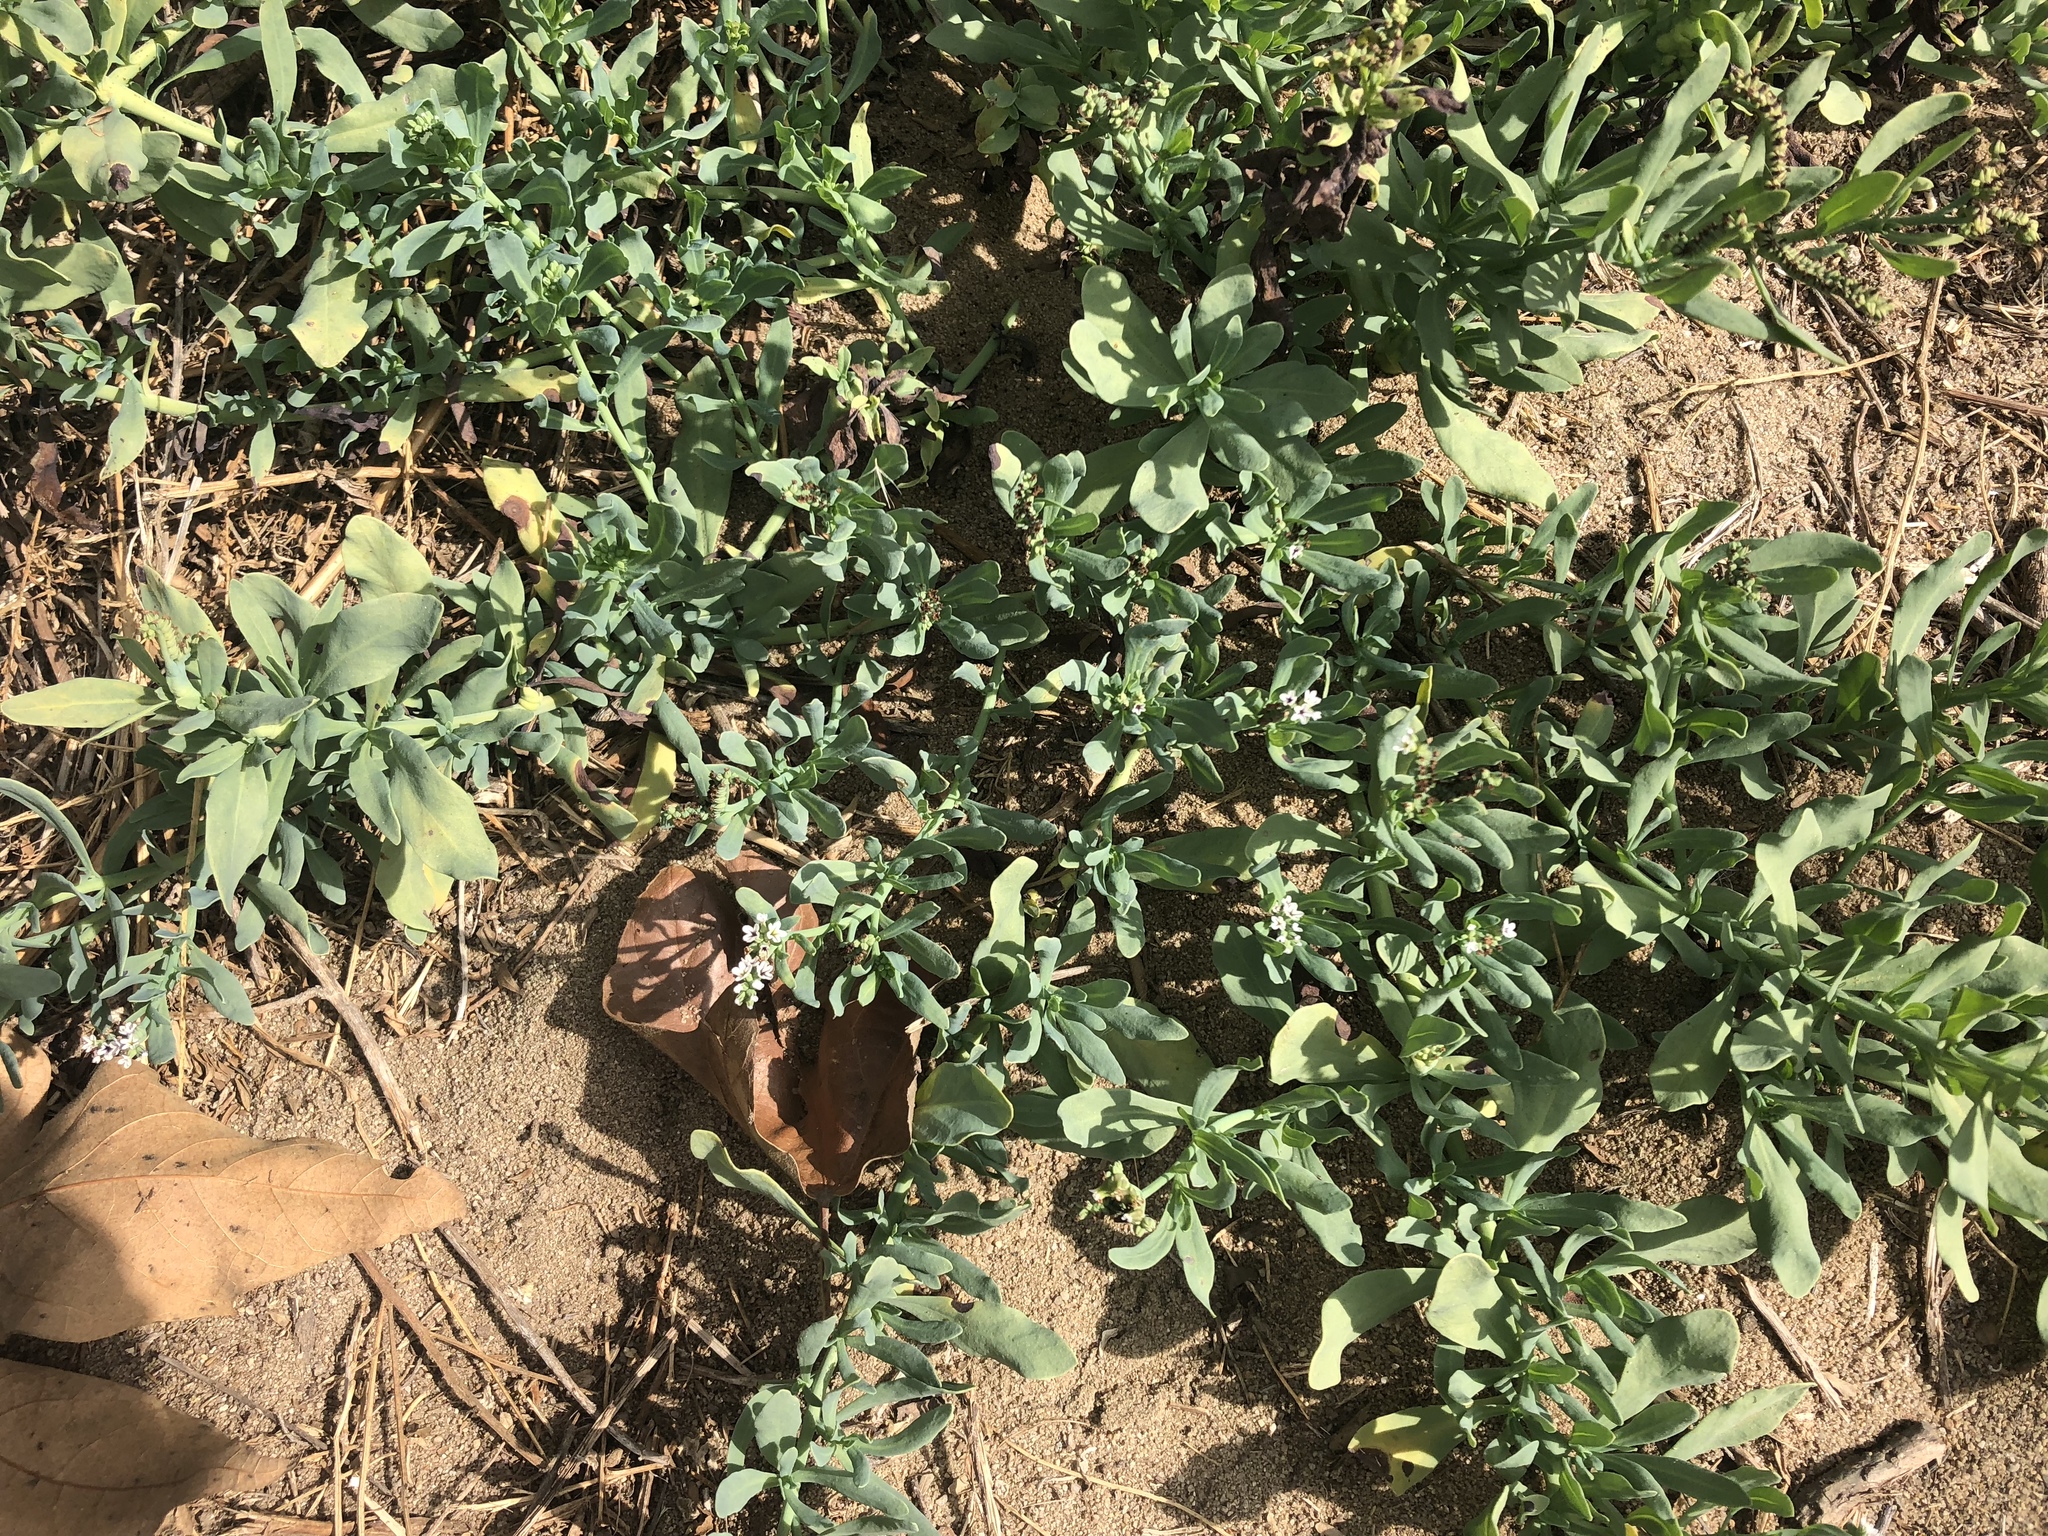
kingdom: Plantae
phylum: Tracheophyta
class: Magnoliopsida
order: Boraginales
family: Heliotropiaceae
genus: Heliotropium
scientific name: Heliotropium curassavicum
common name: Seaside heliotrope
